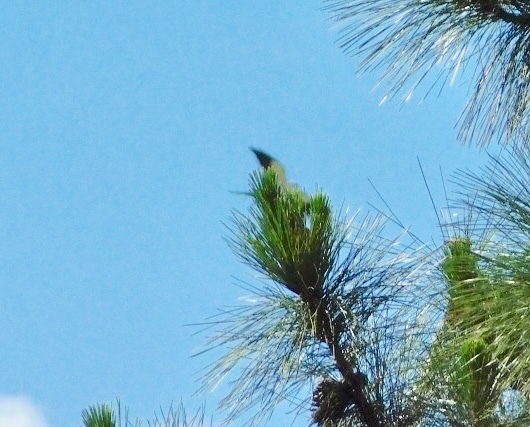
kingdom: Animalia
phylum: Chordata
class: Aves
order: Accipitriformes
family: Accipitridae
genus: Elanoides
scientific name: Elanoides forficatus
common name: Swallow-tailed kite
